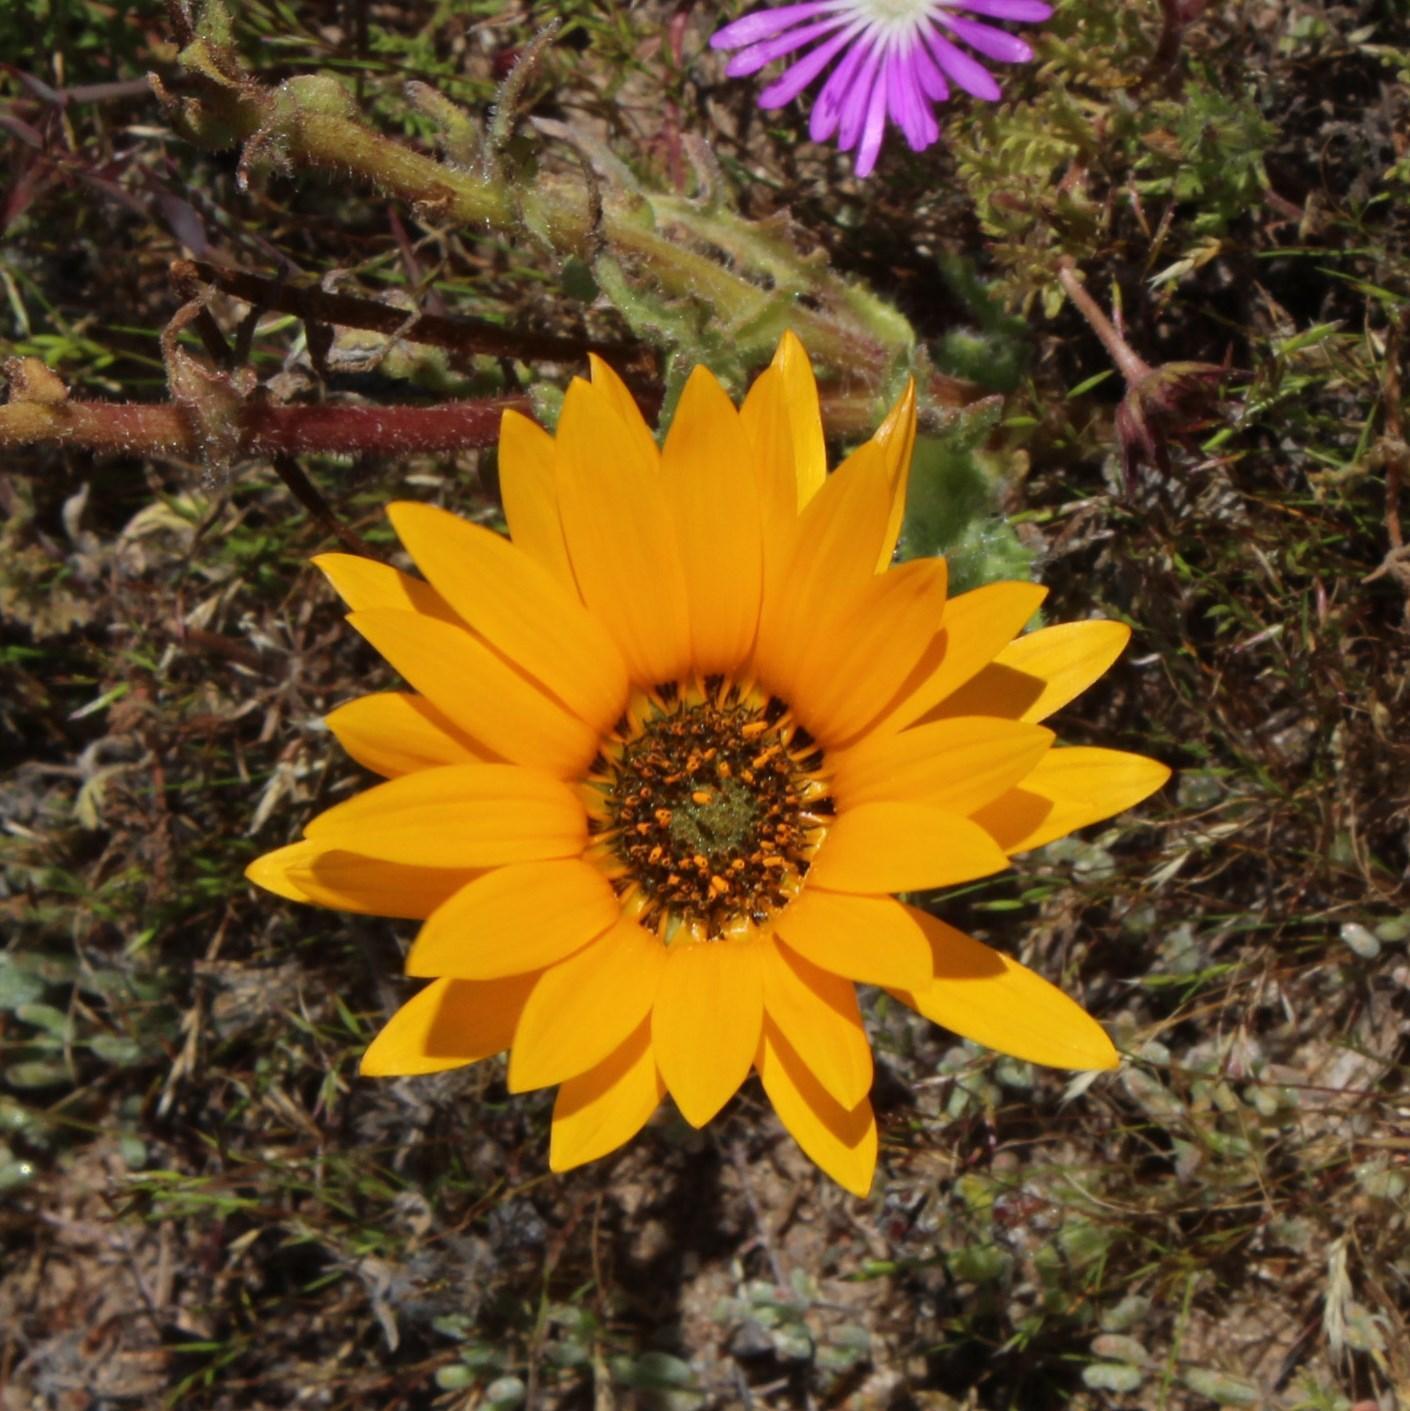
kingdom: Plantae
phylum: Tracheophyta
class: Magnoliopsida
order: Asterales
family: Asteraceae
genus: Arctotis
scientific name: Arctotis fastuosa
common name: Monarch of the veld
